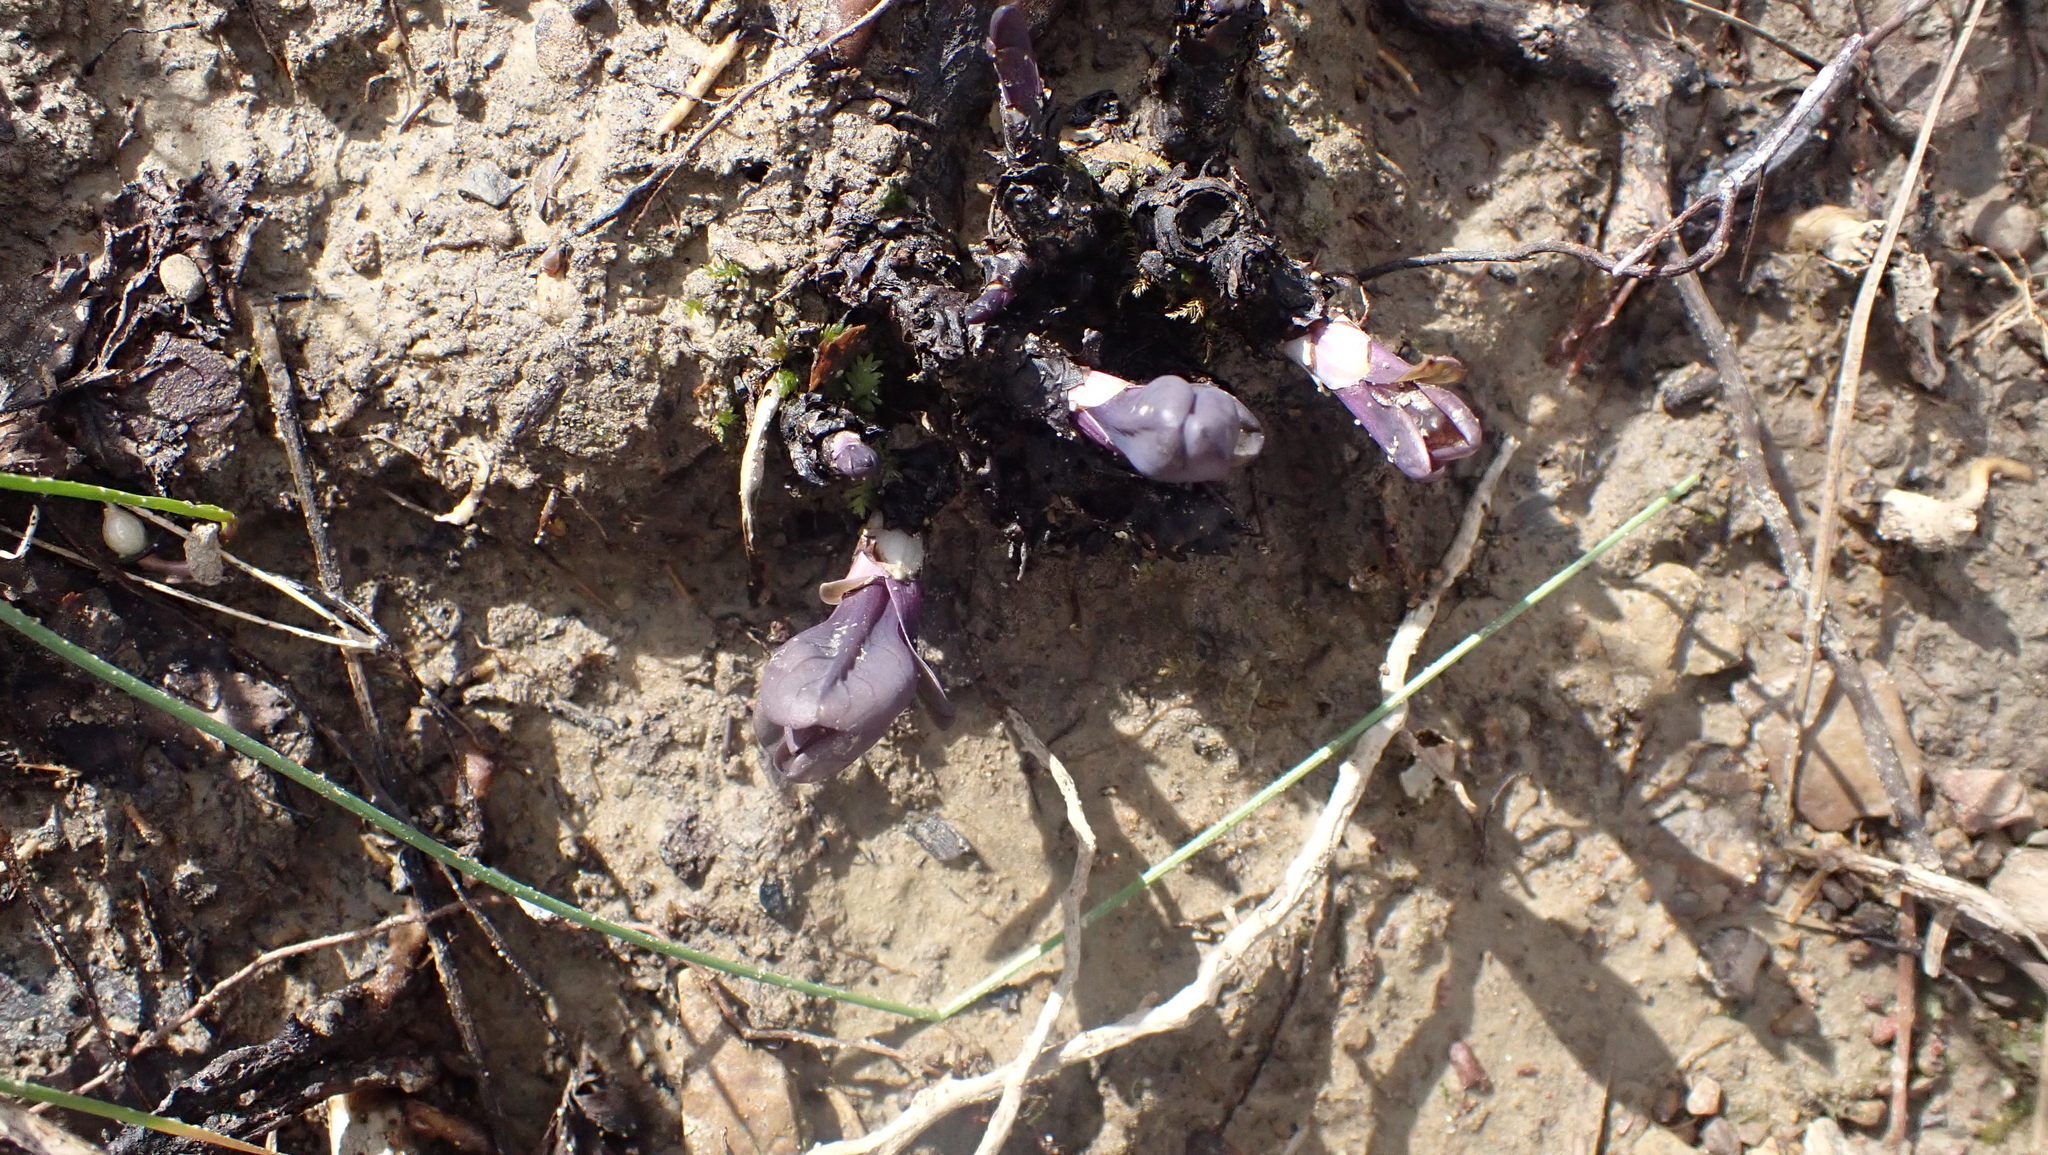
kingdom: Plantae
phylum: Tracheophyta
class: Magnoliopsida
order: Boraginales
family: Boraginaceae
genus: Mertensia
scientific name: Mertensia virginica
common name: Virginia bluebells
